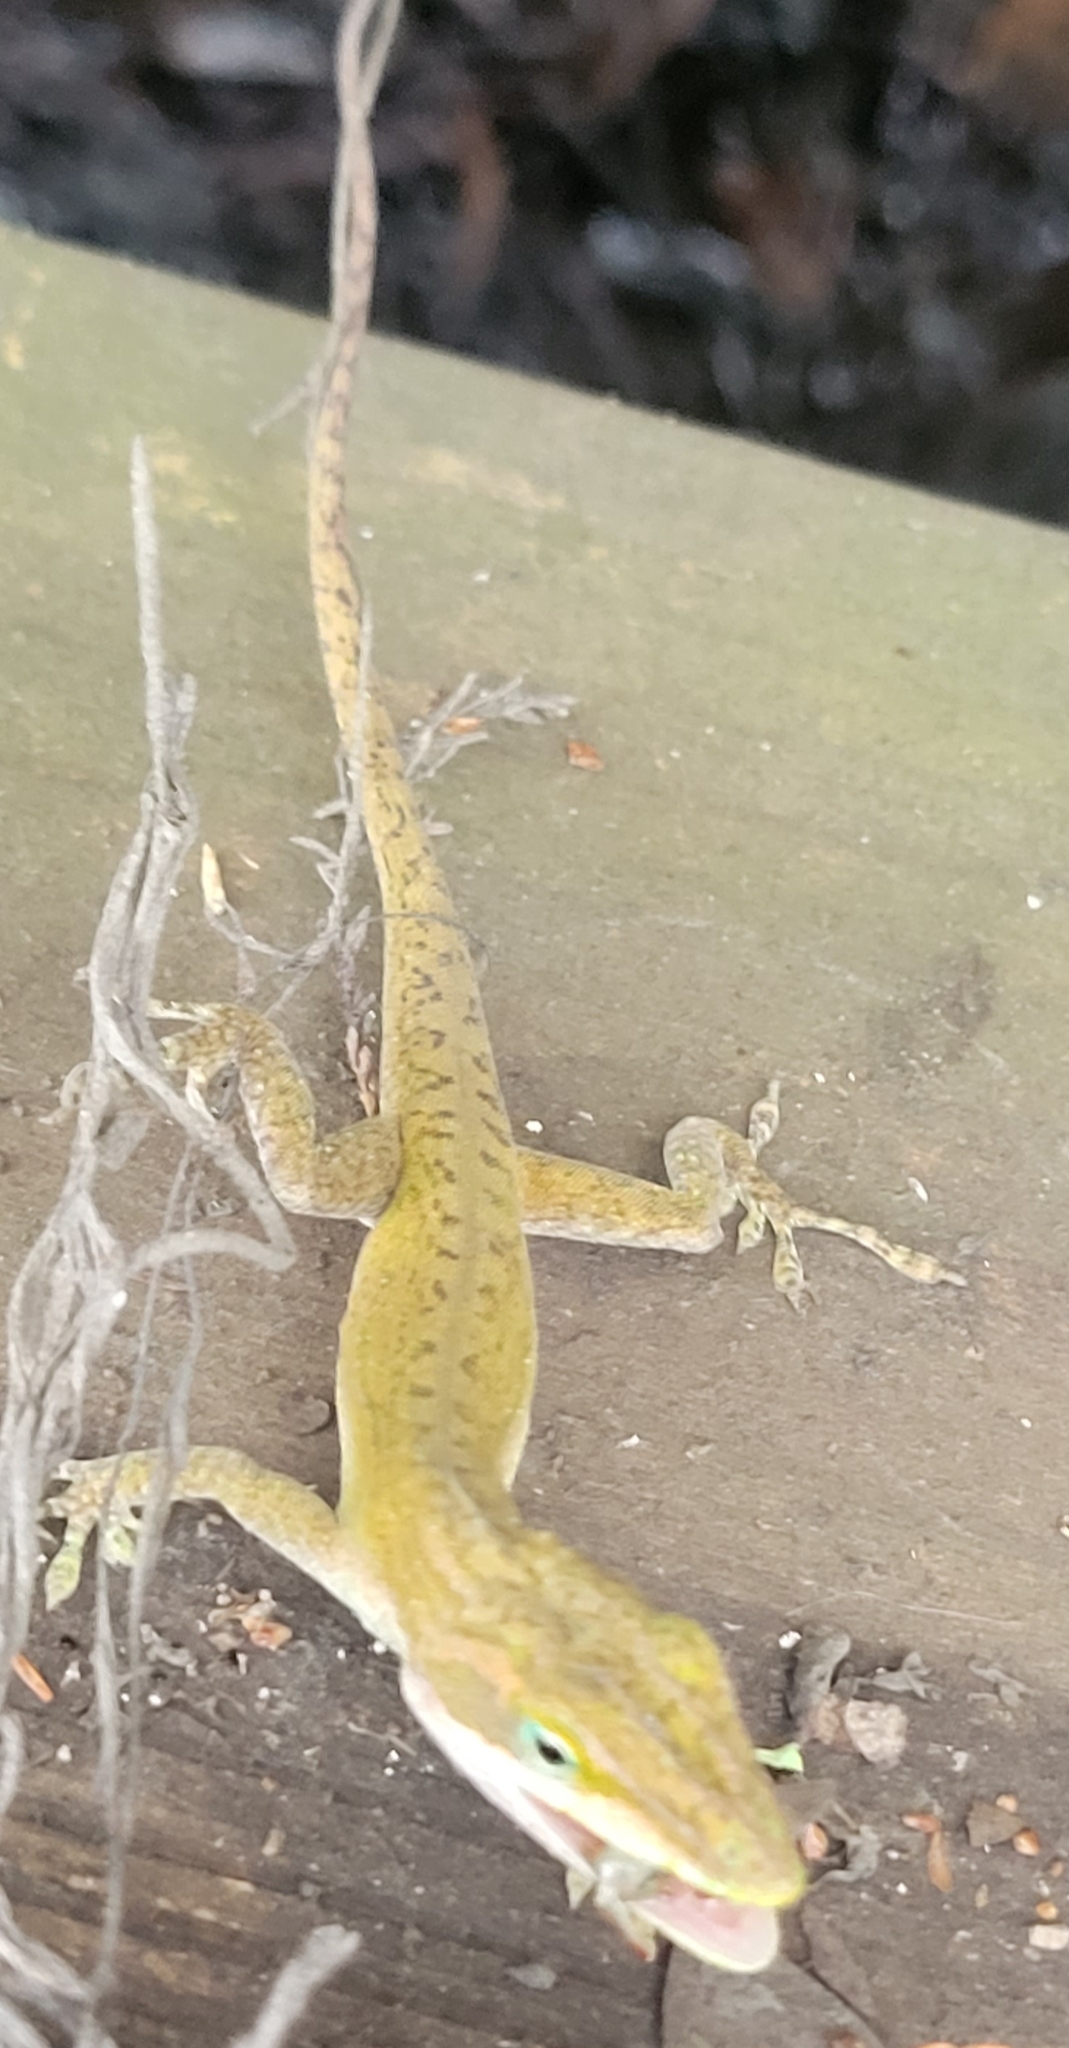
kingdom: Animalia
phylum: Chordata
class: Squamata
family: Dactyloidae
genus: Anolis
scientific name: Anolis carolinensis
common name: Green anole
